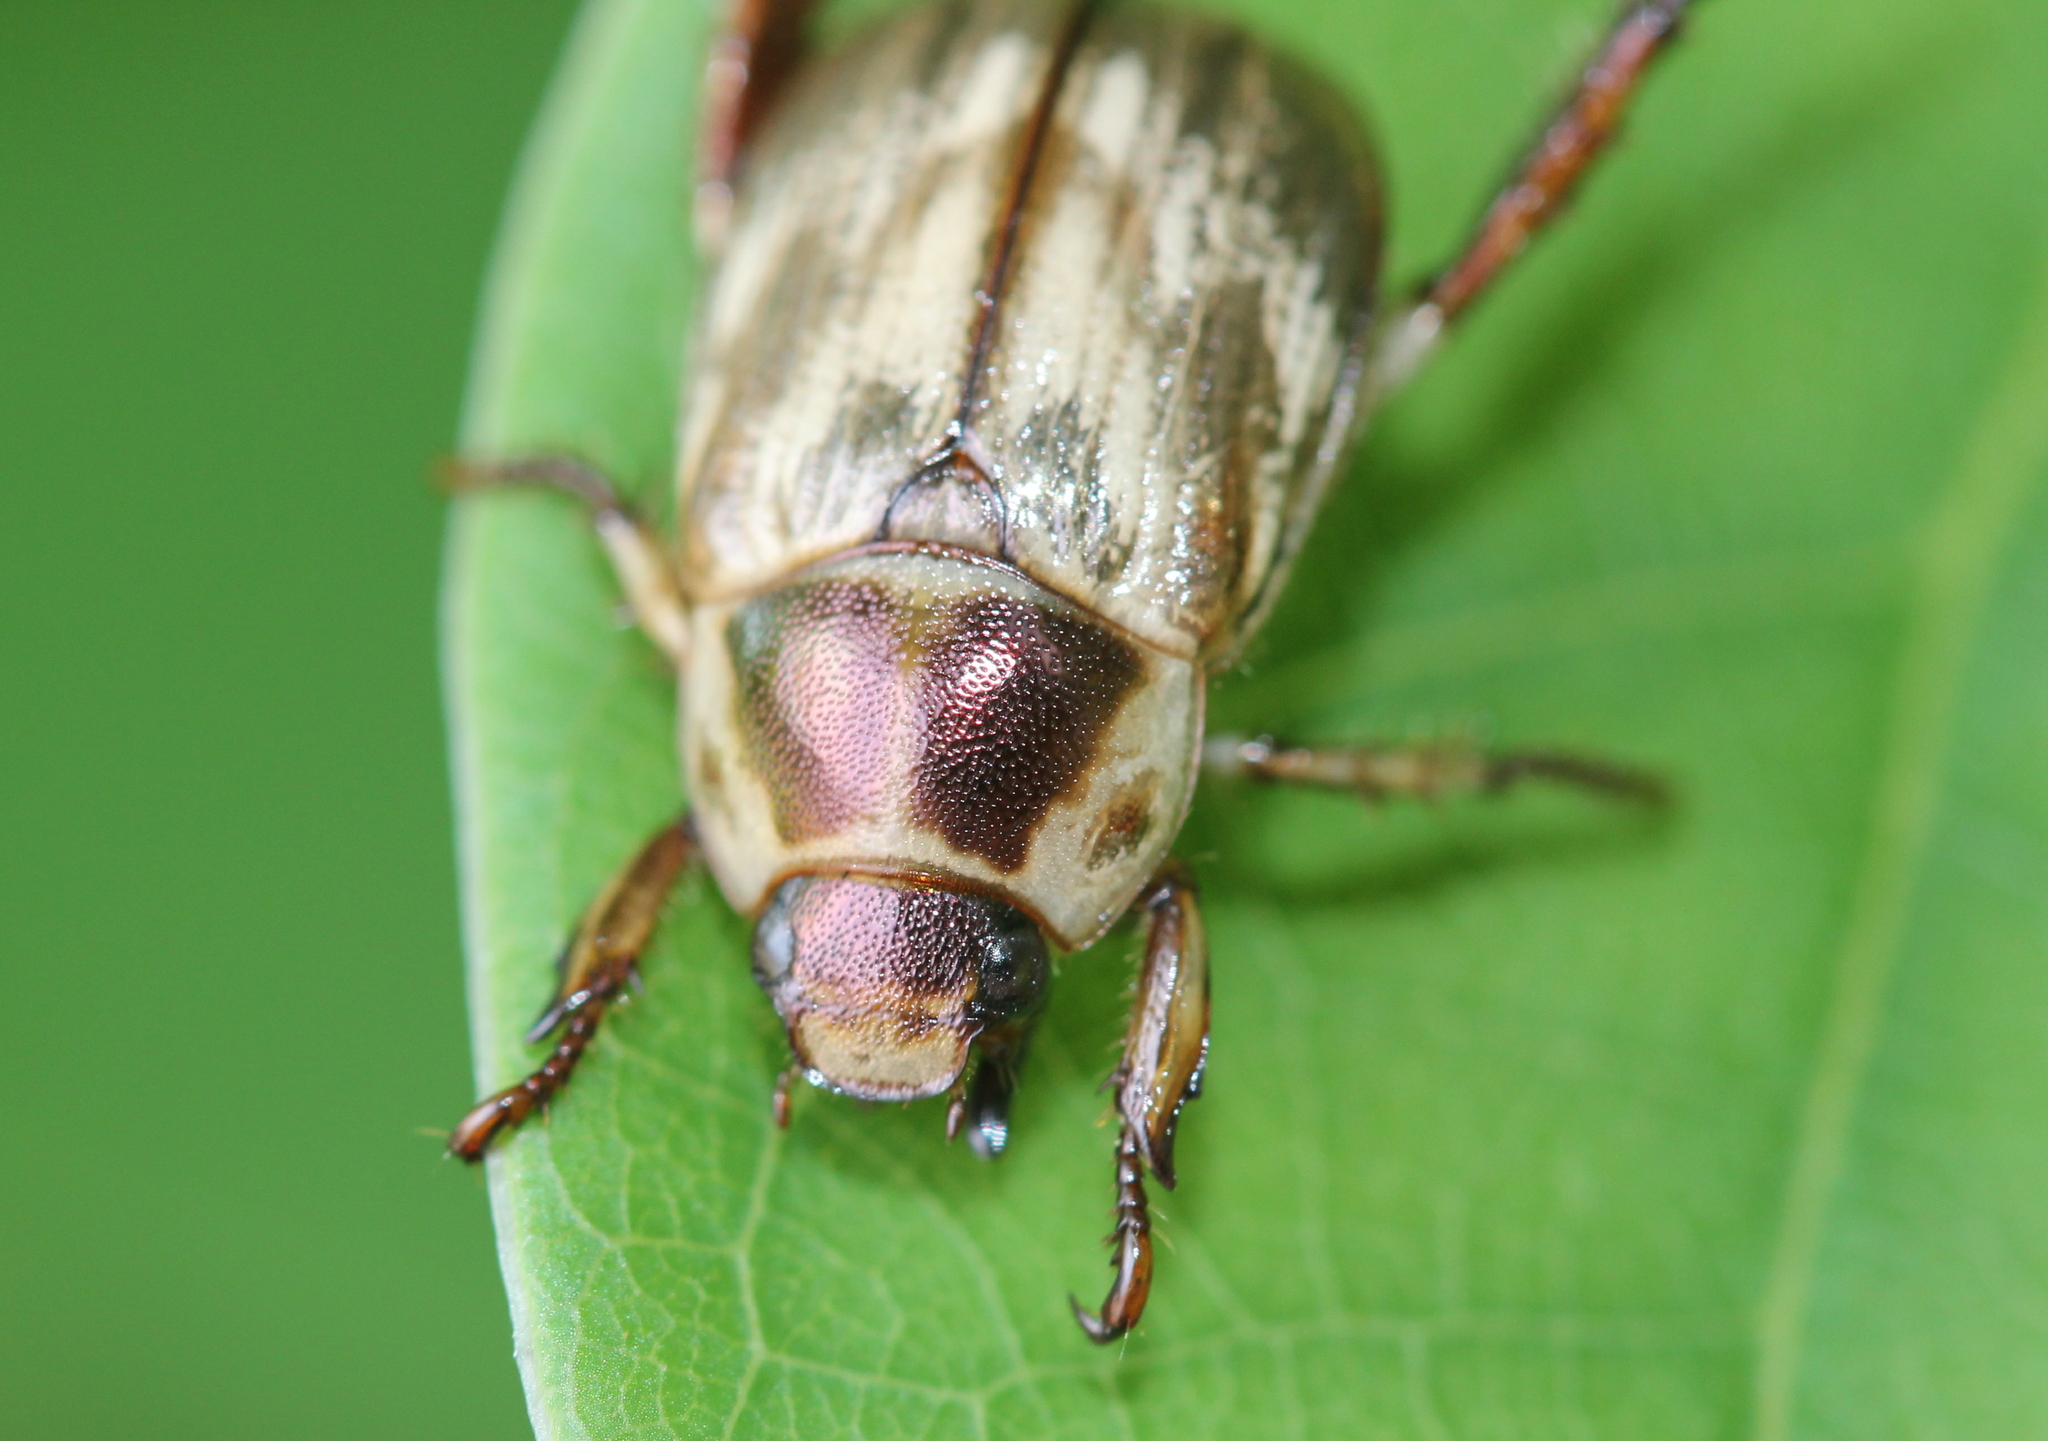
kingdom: Animalia
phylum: Arthropoda
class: Insecta
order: Coleoptera
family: Scarabaeidae
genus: Exomala
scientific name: Exomala orientalis
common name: Oriental beetle
